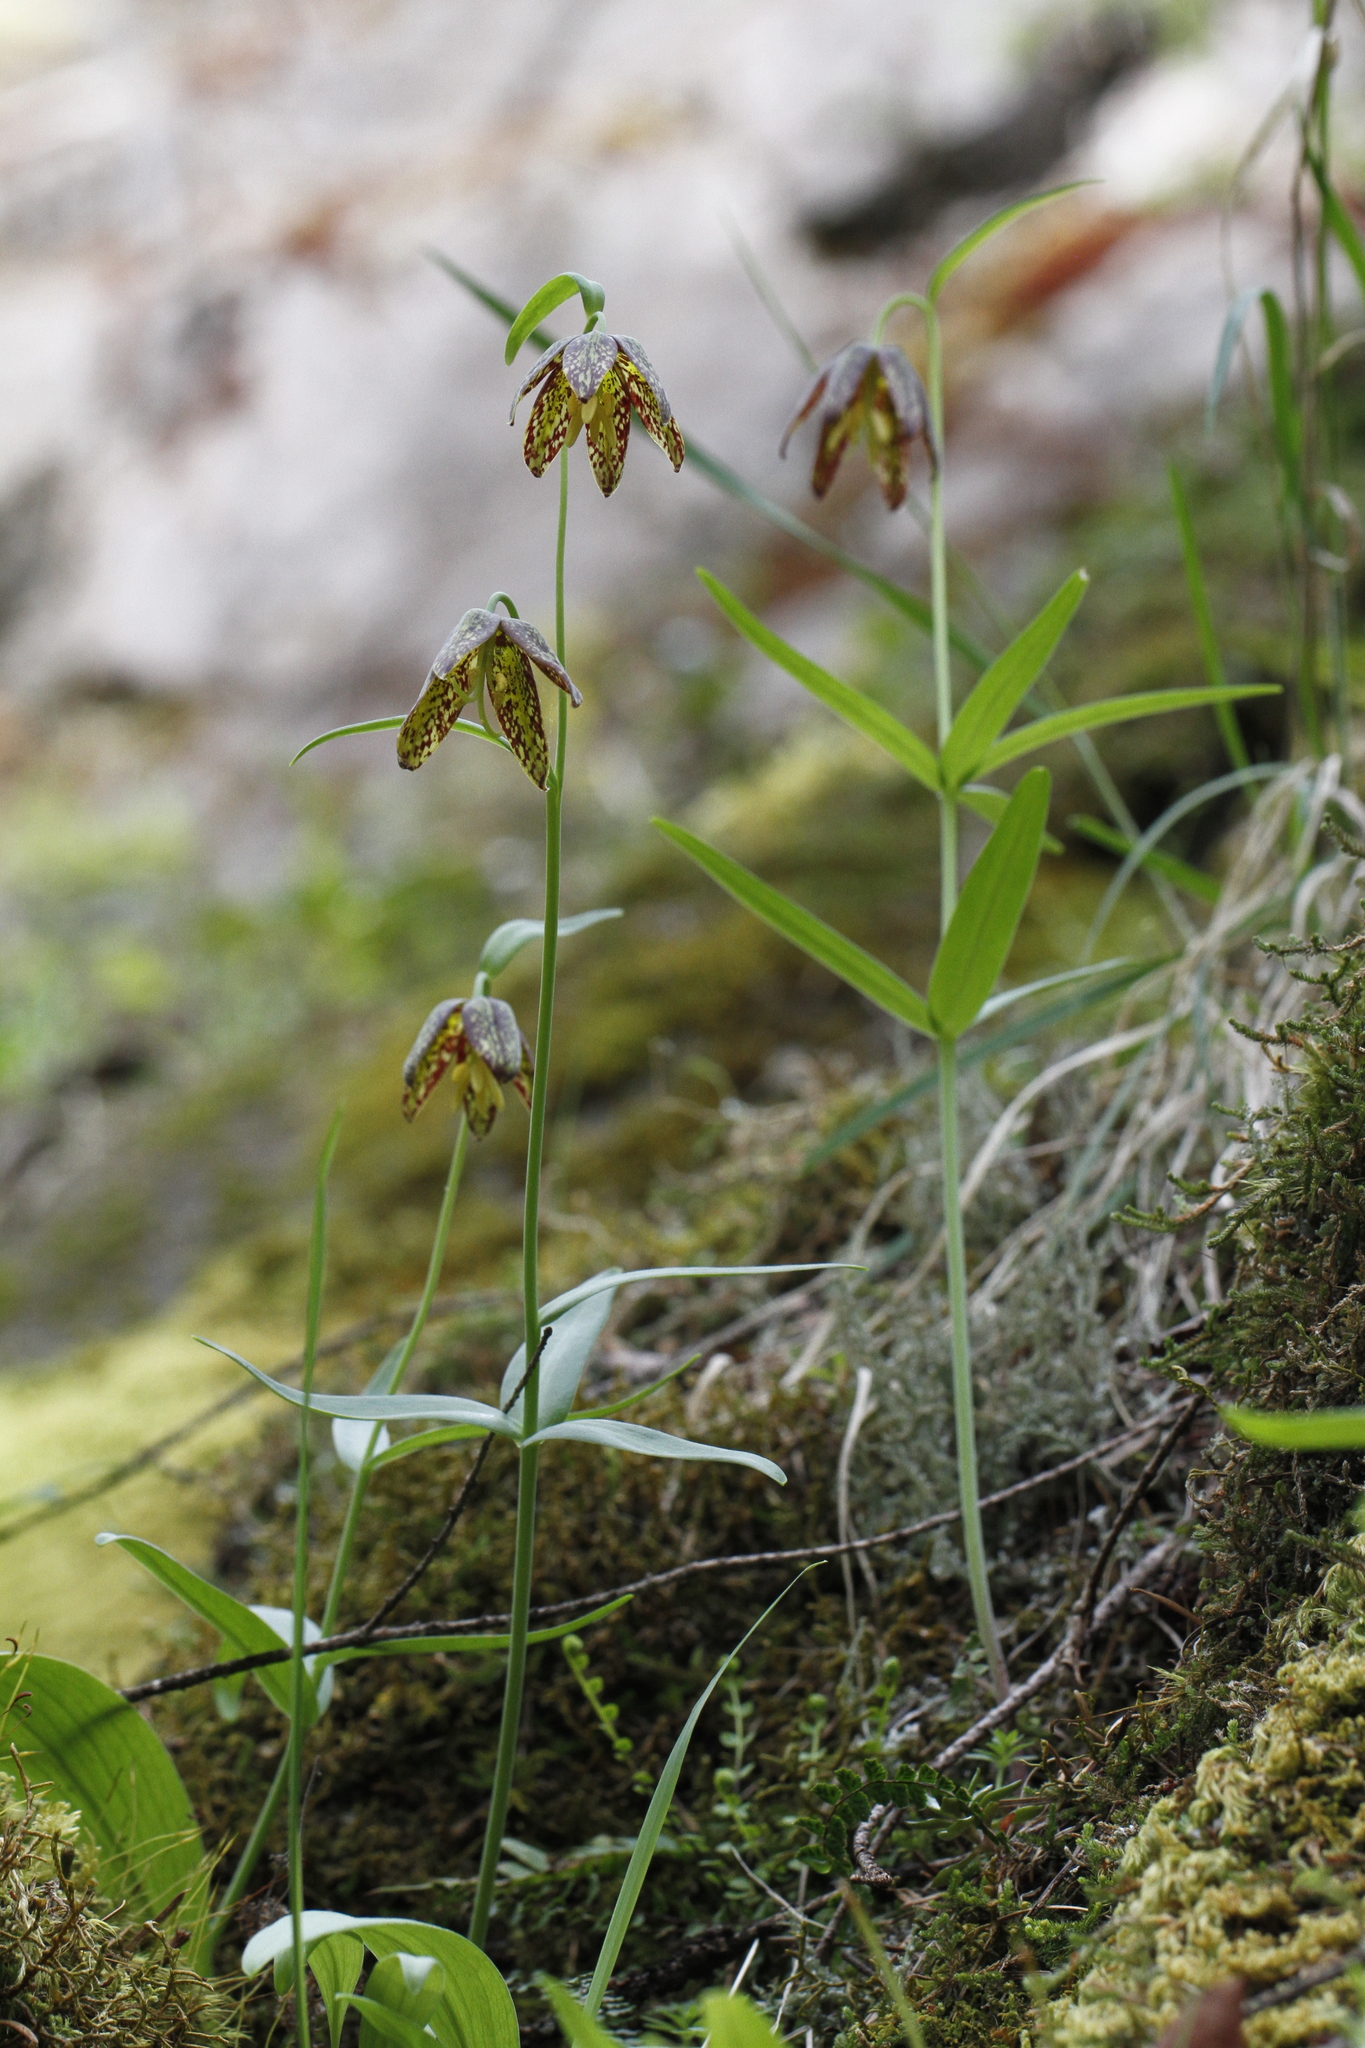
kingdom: Plantae
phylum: Tracheophyta
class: Liliopsida
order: Liliales
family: Liliaceae
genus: Fritillaria
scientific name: Fritillaria affinis
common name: Ojai fritillary
